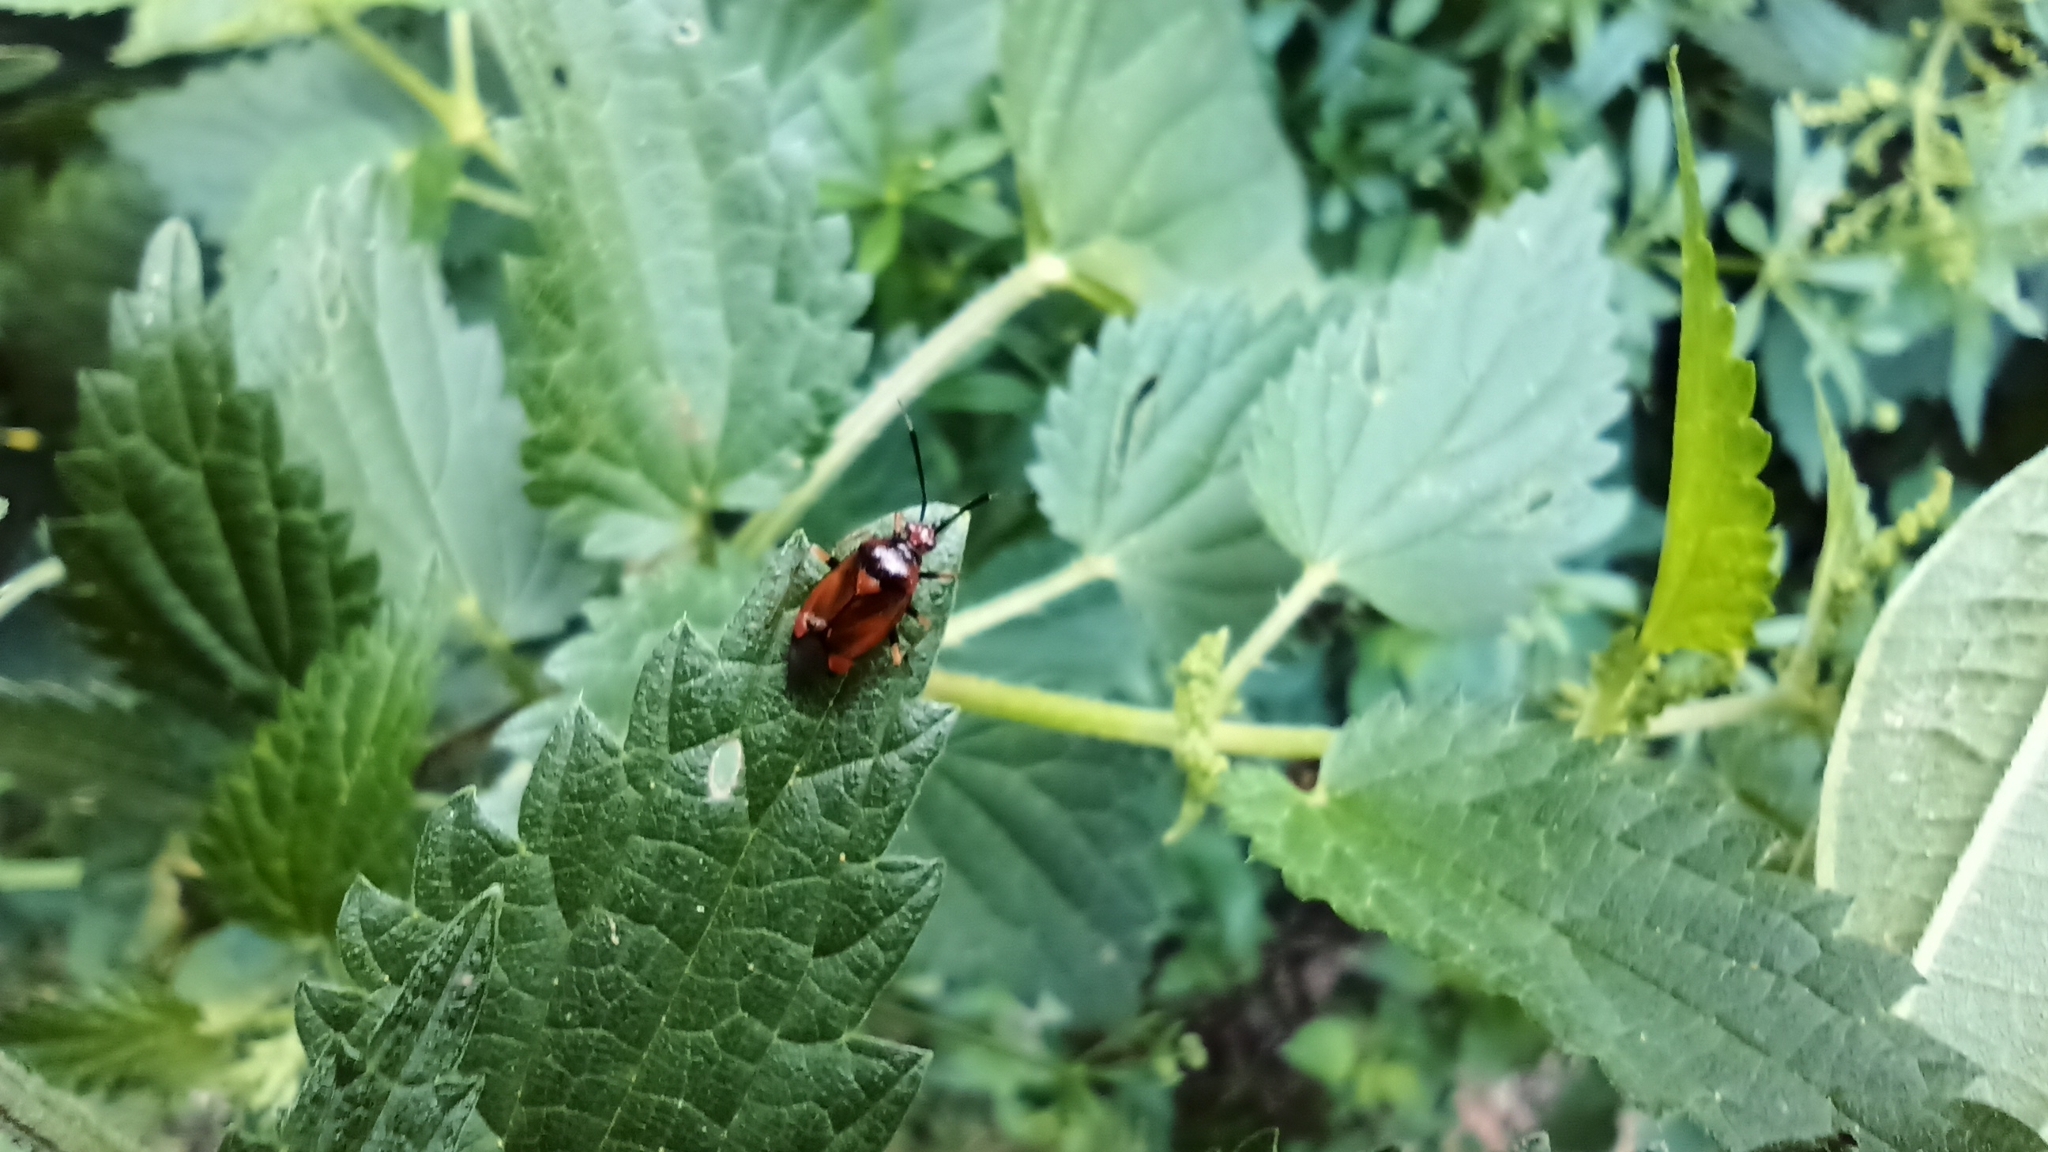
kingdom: Animalia
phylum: Arthropoda
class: Insecta
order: Hemiptera
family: Miridae
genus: Deraeocoris
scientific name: Deraeocoris ruber
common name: Plant bug
